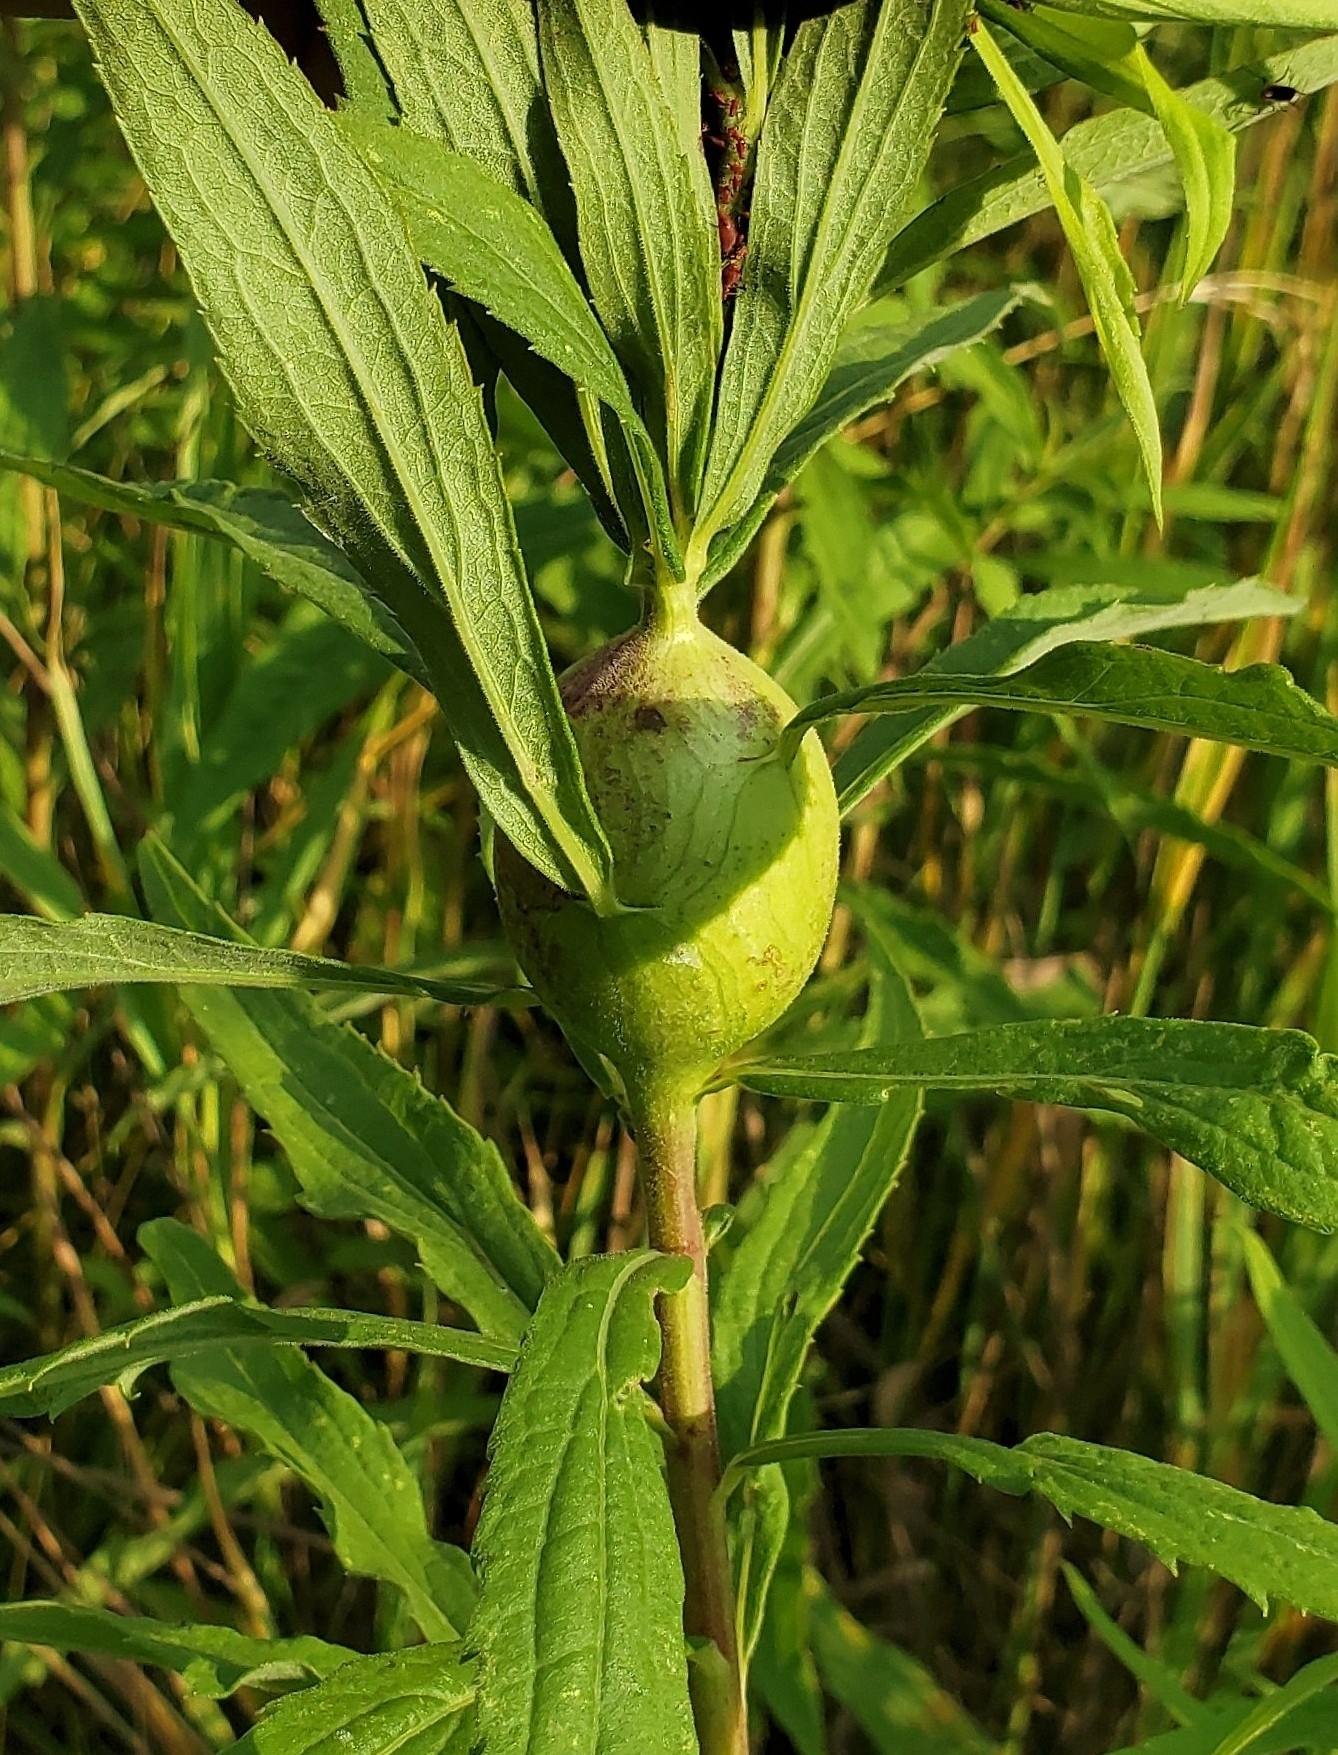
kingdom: Animalia
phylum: Arthropoda
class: Insecta
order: Diptera
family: Tephritidae
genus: Eurosta
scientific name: Eurosta solidaginis
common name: Goldenrod gall fly
